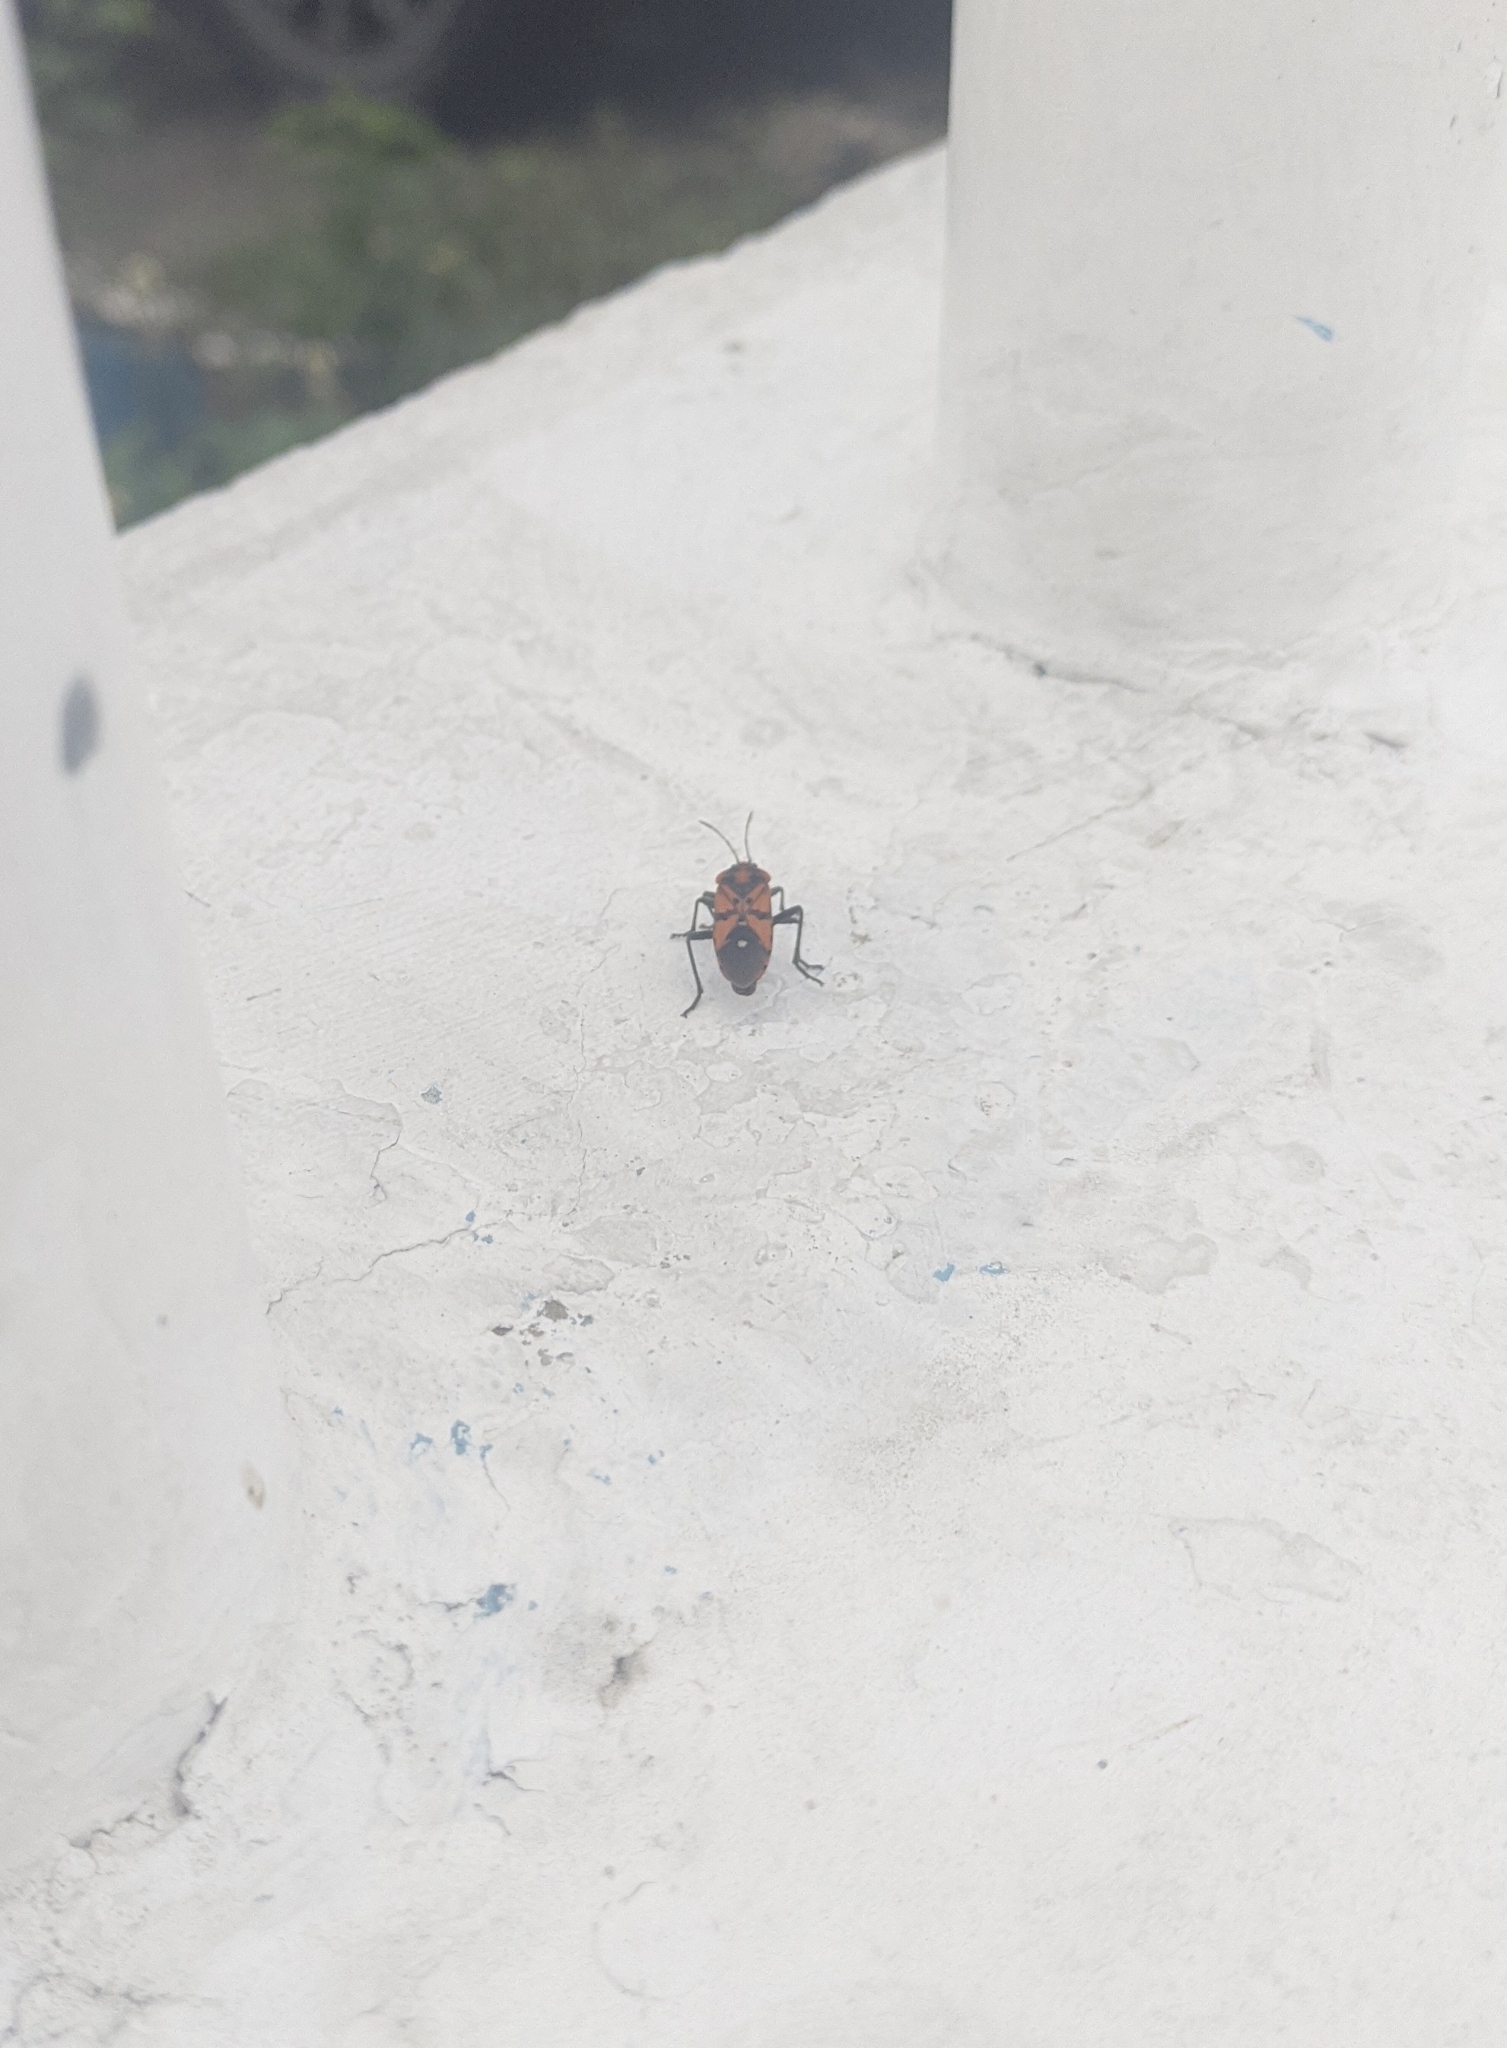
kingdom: Animalia
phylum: Arthropoda
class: Insecta
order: Hemiptera
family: Lygaeidae
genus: Spilostethus
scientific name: Spilostethus pandurus
